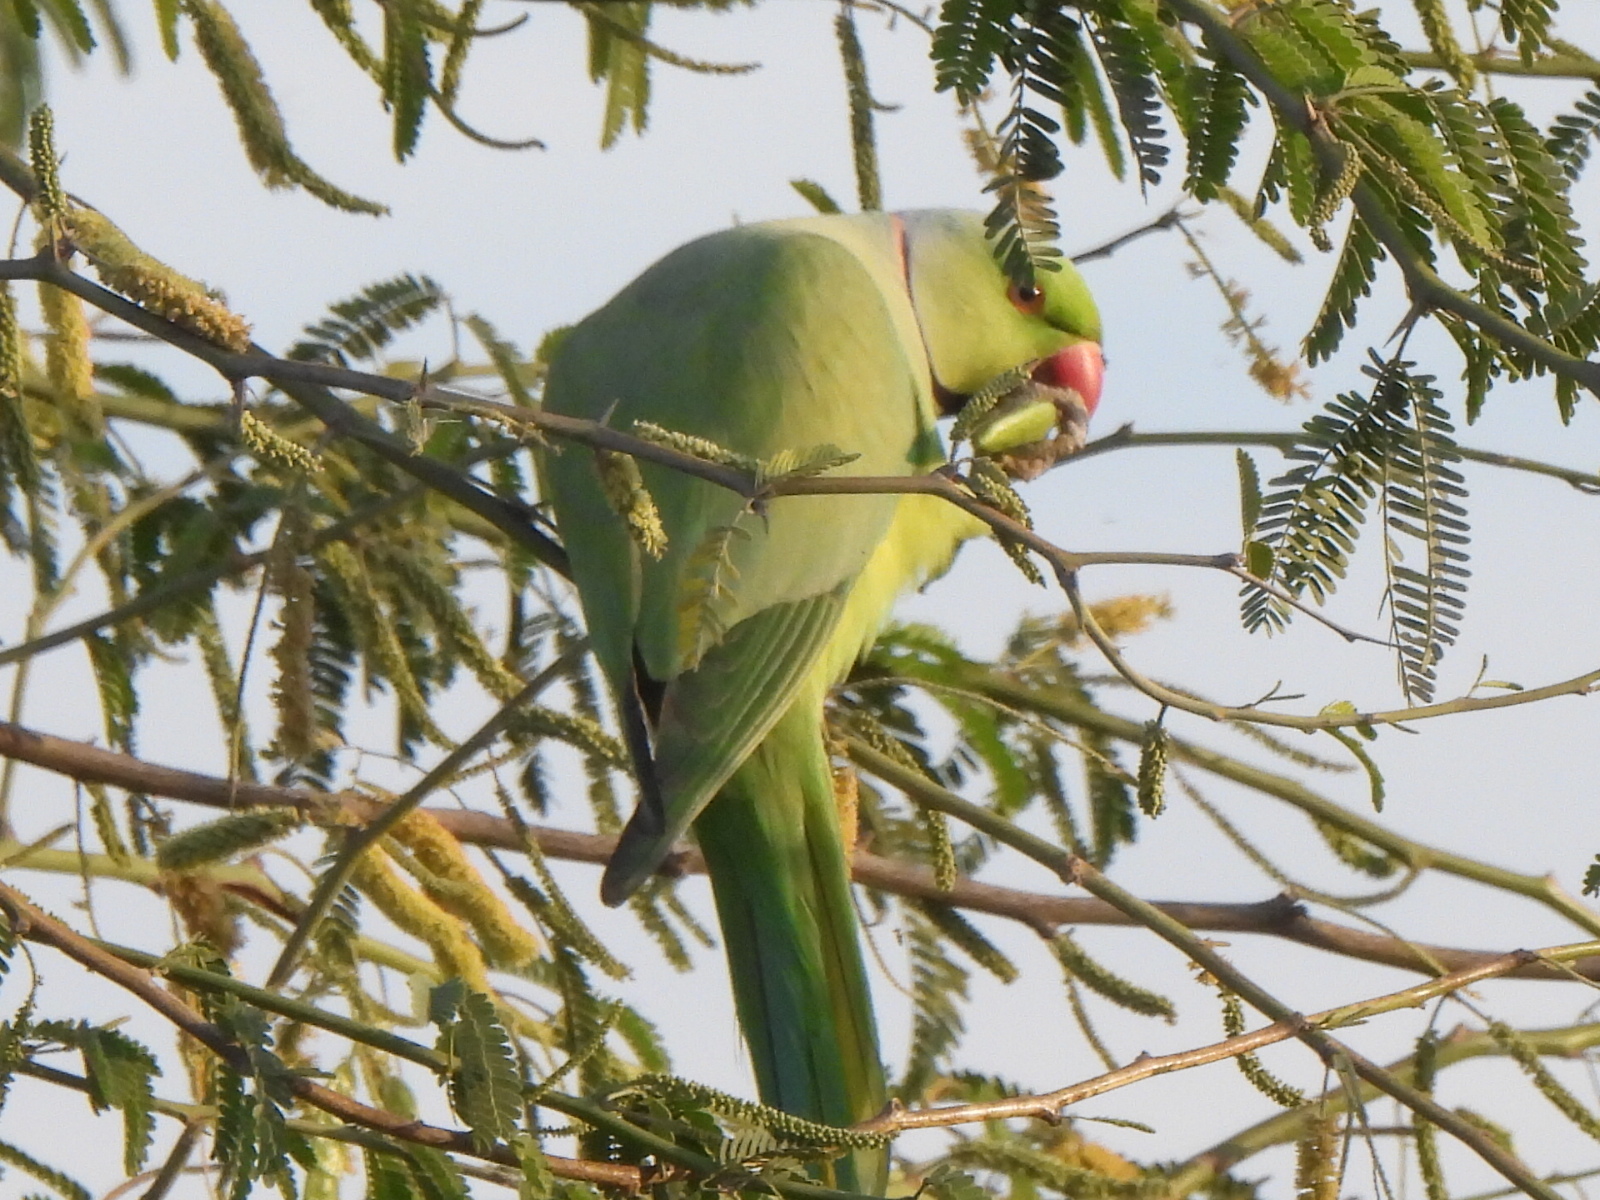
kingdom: Animalia
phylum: Chordata
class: Aves
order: Psittaciformes
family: Psittacidae
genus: Psittacula
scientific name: Psittacula krameri
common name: Rose-ringed parakeet
